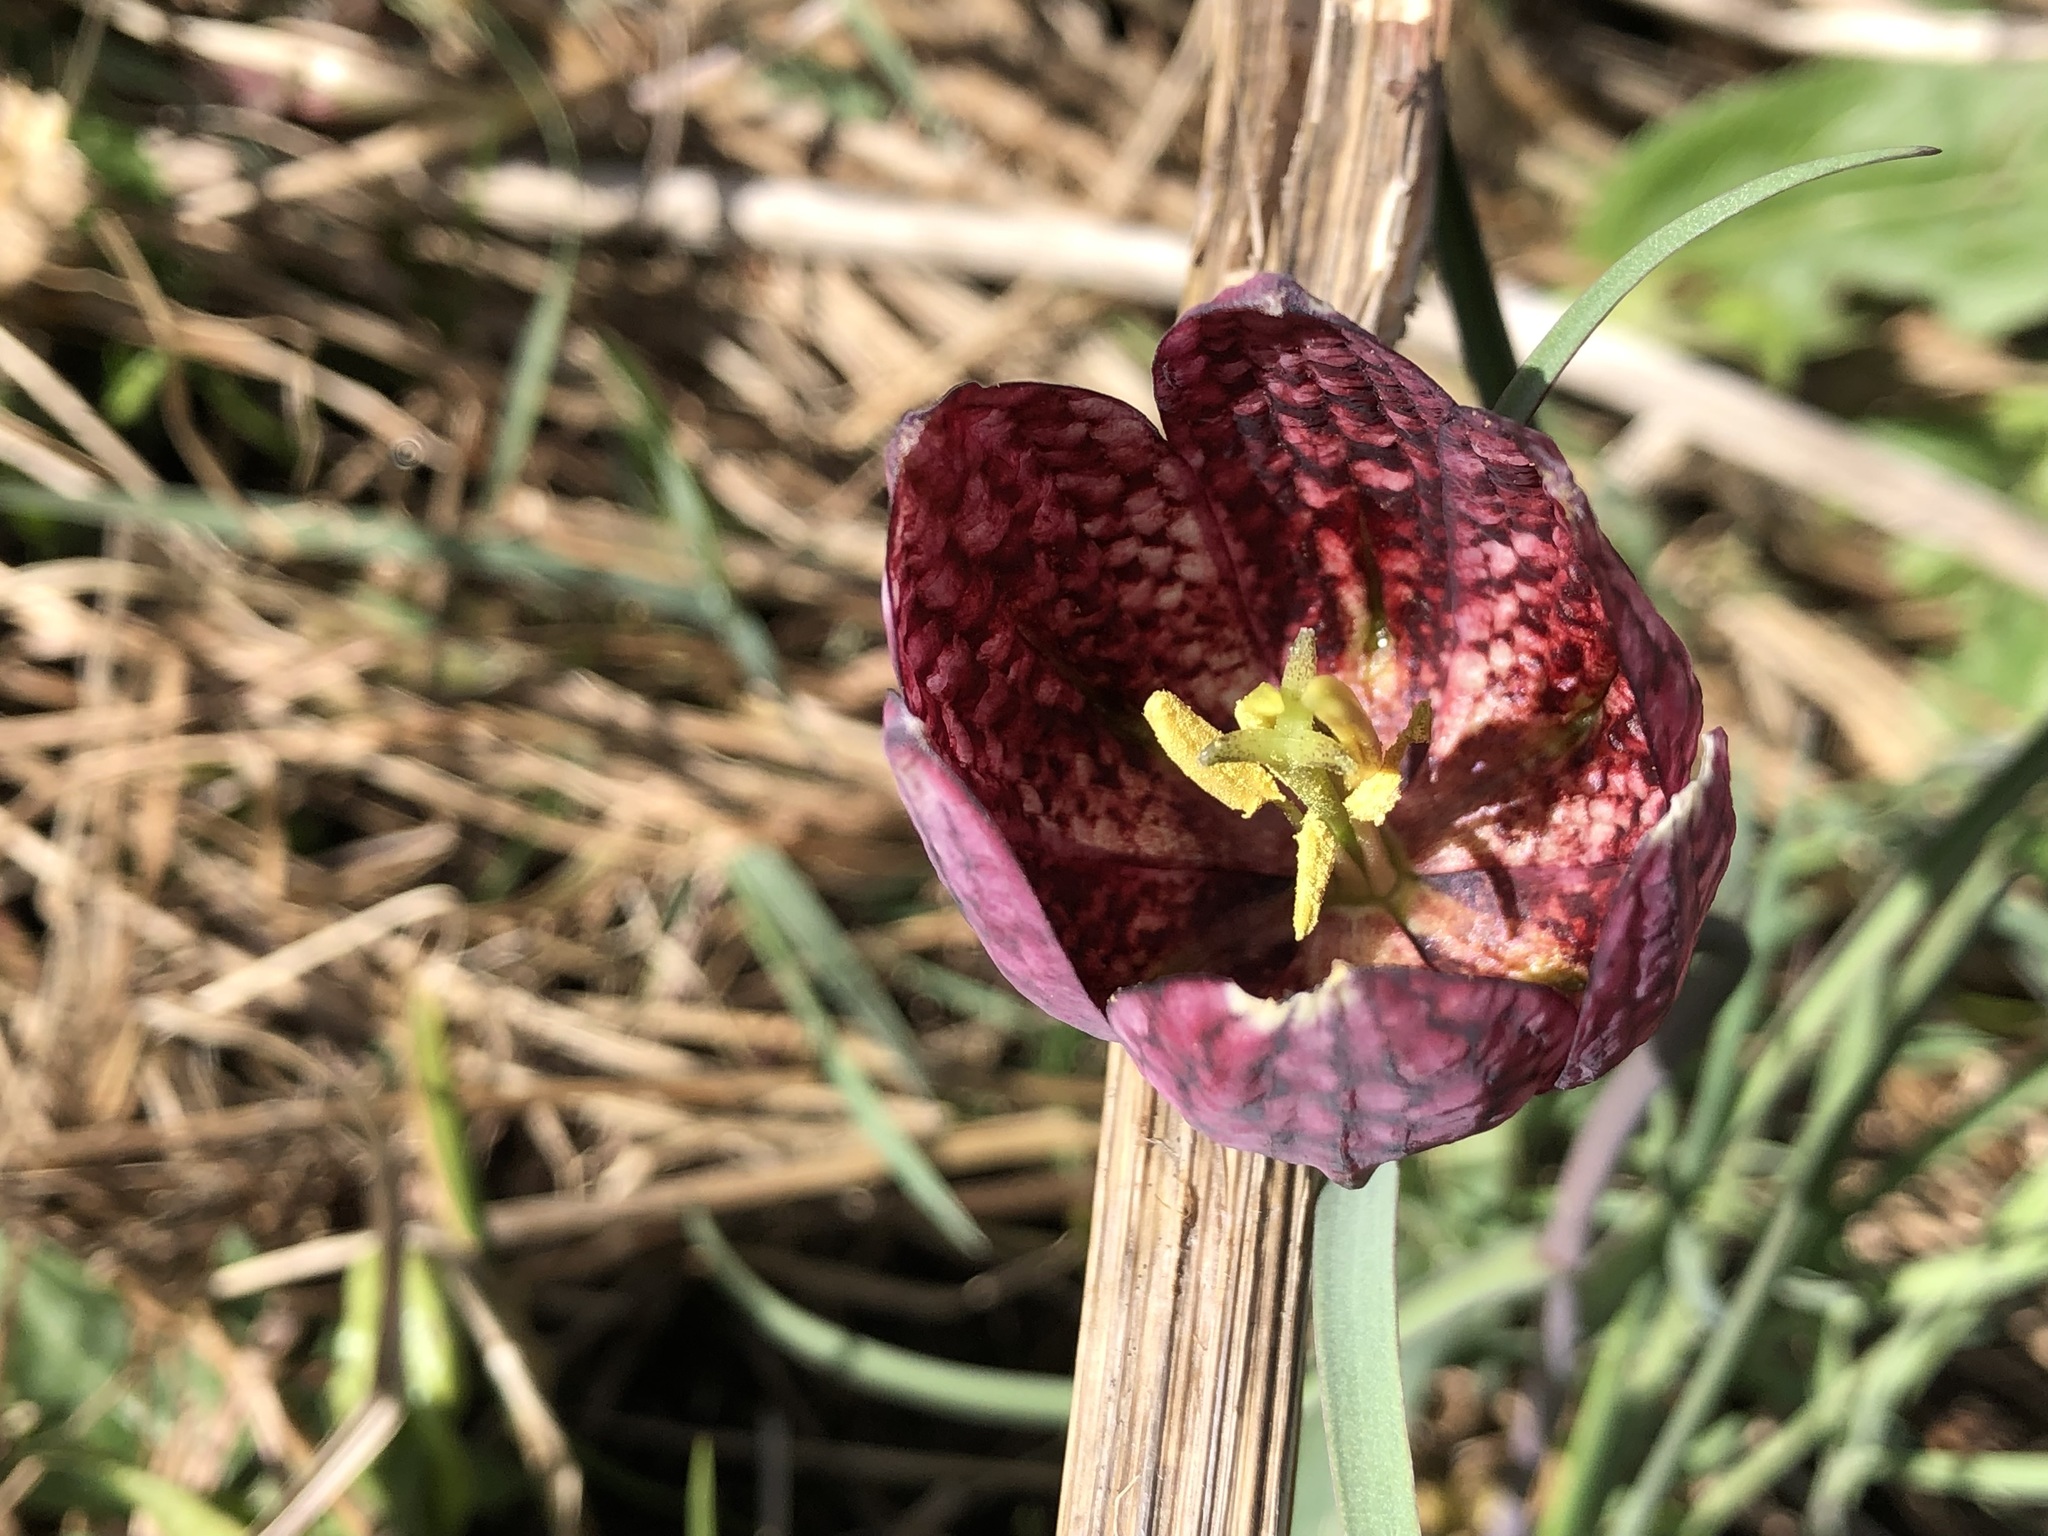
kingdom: Plantae
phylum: Tracheophyta
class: Liliopsida
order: Liliales
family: Liliaceae
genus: Fritillaria
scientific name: Fritillaria meleagris
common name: Fritillary
